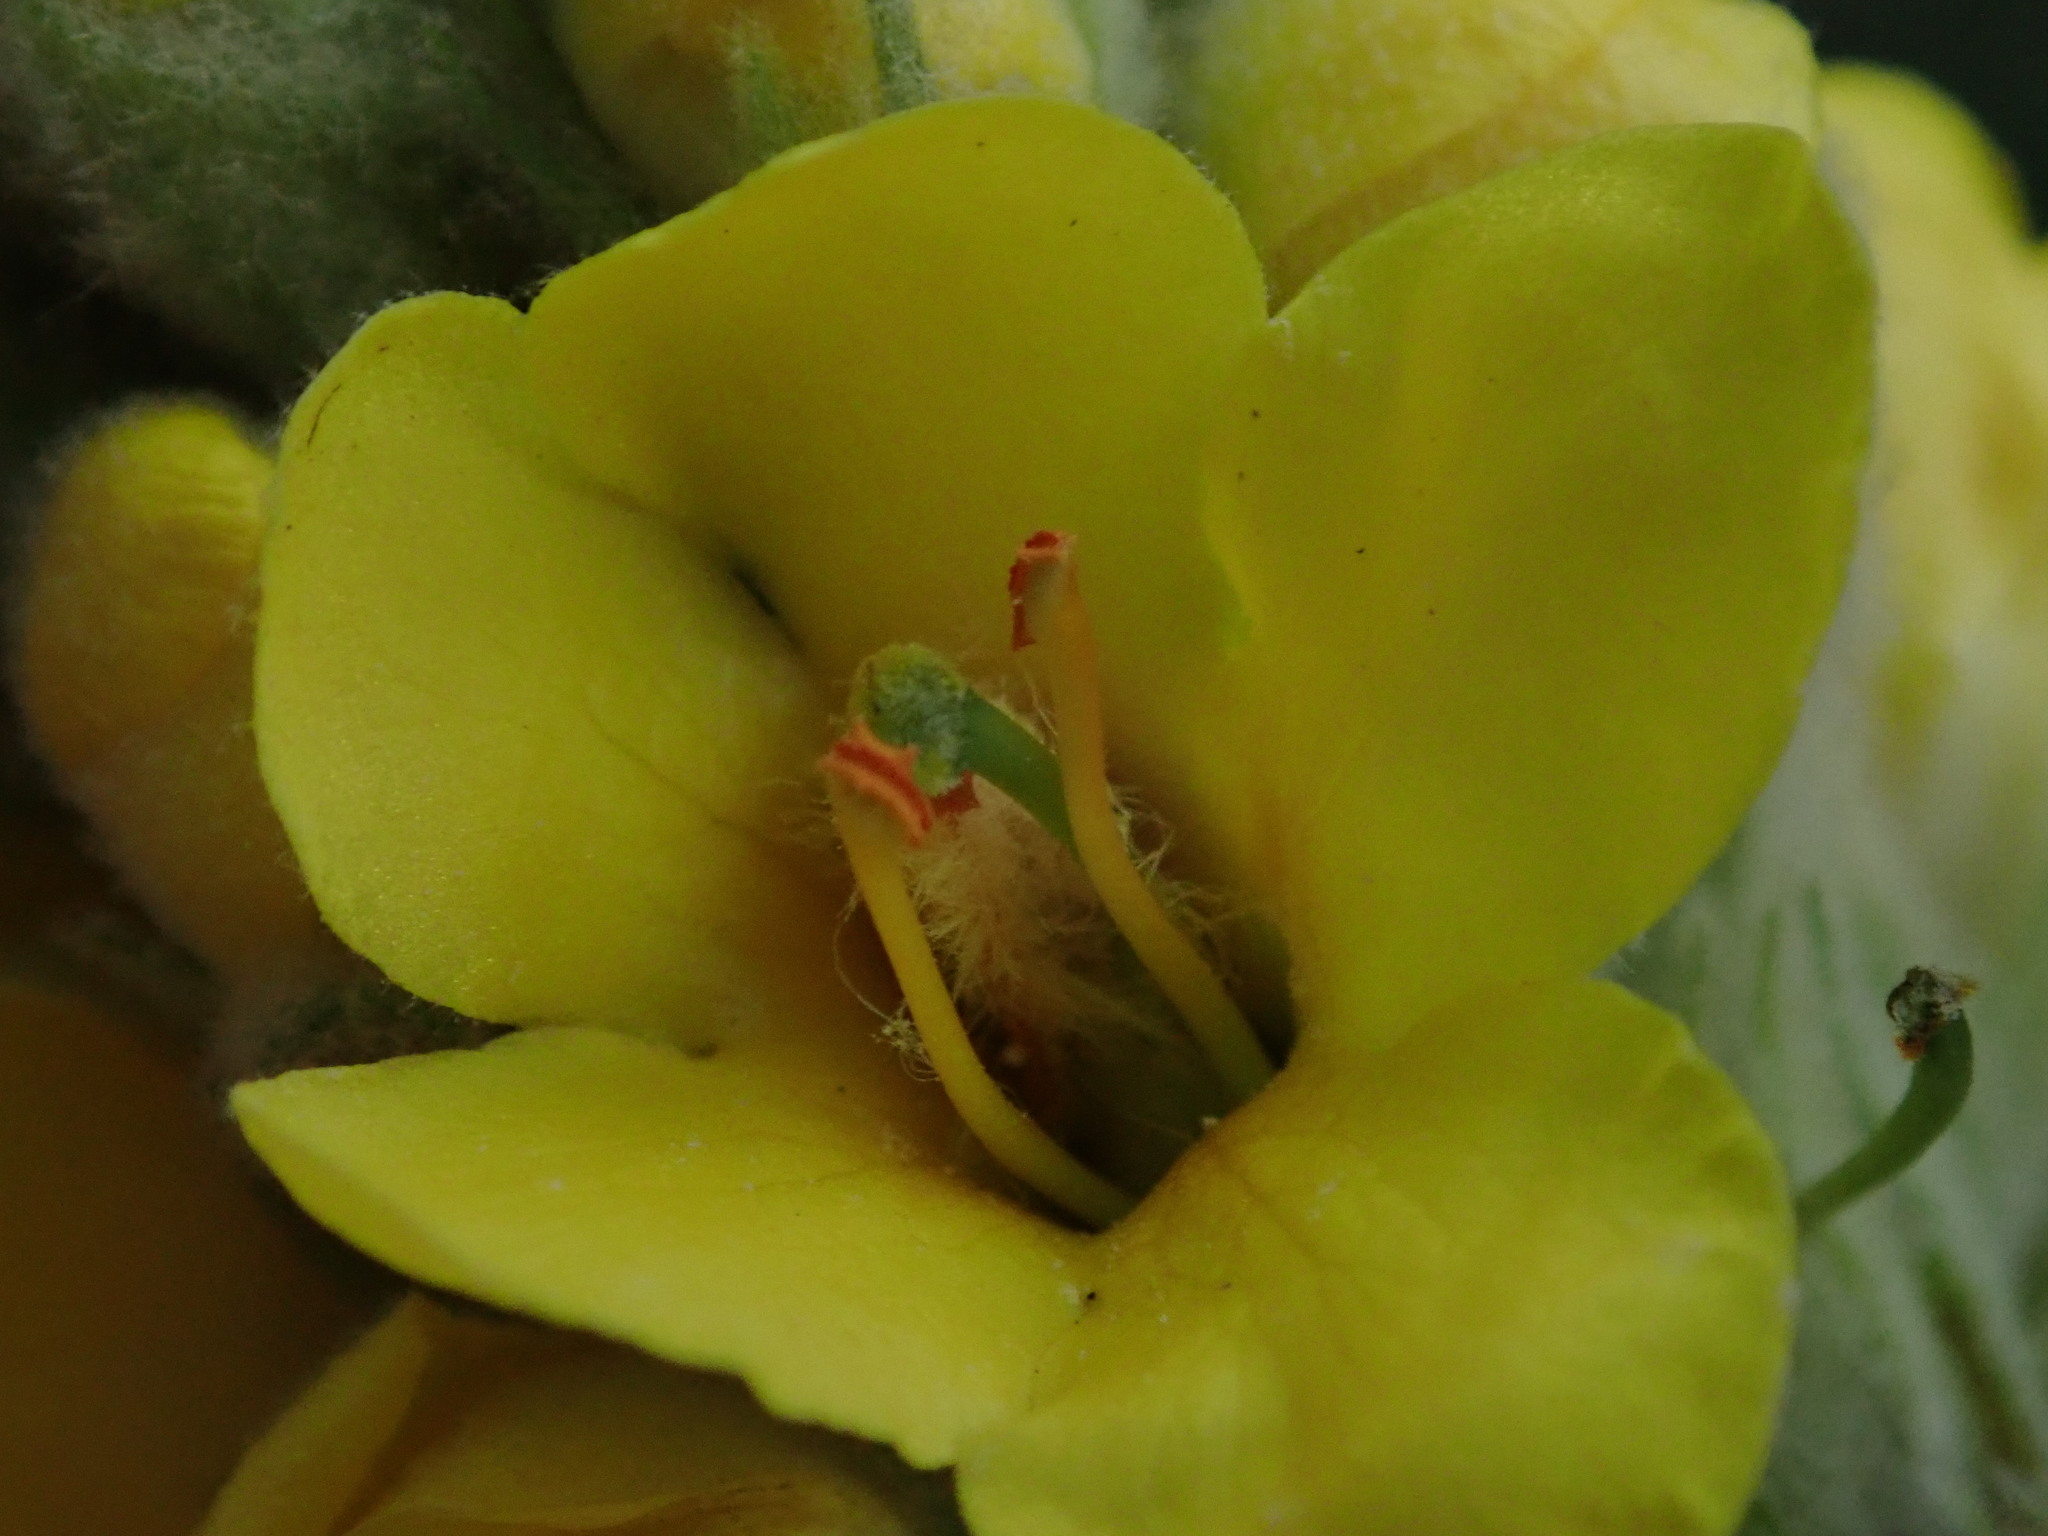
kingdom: Plantae
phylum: Tracheophyta
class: Magnoliopsida
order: Lamiales
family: Scrophulariaceae
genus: Verbascum
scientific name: Verbascum thapsus
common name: Common mullein
